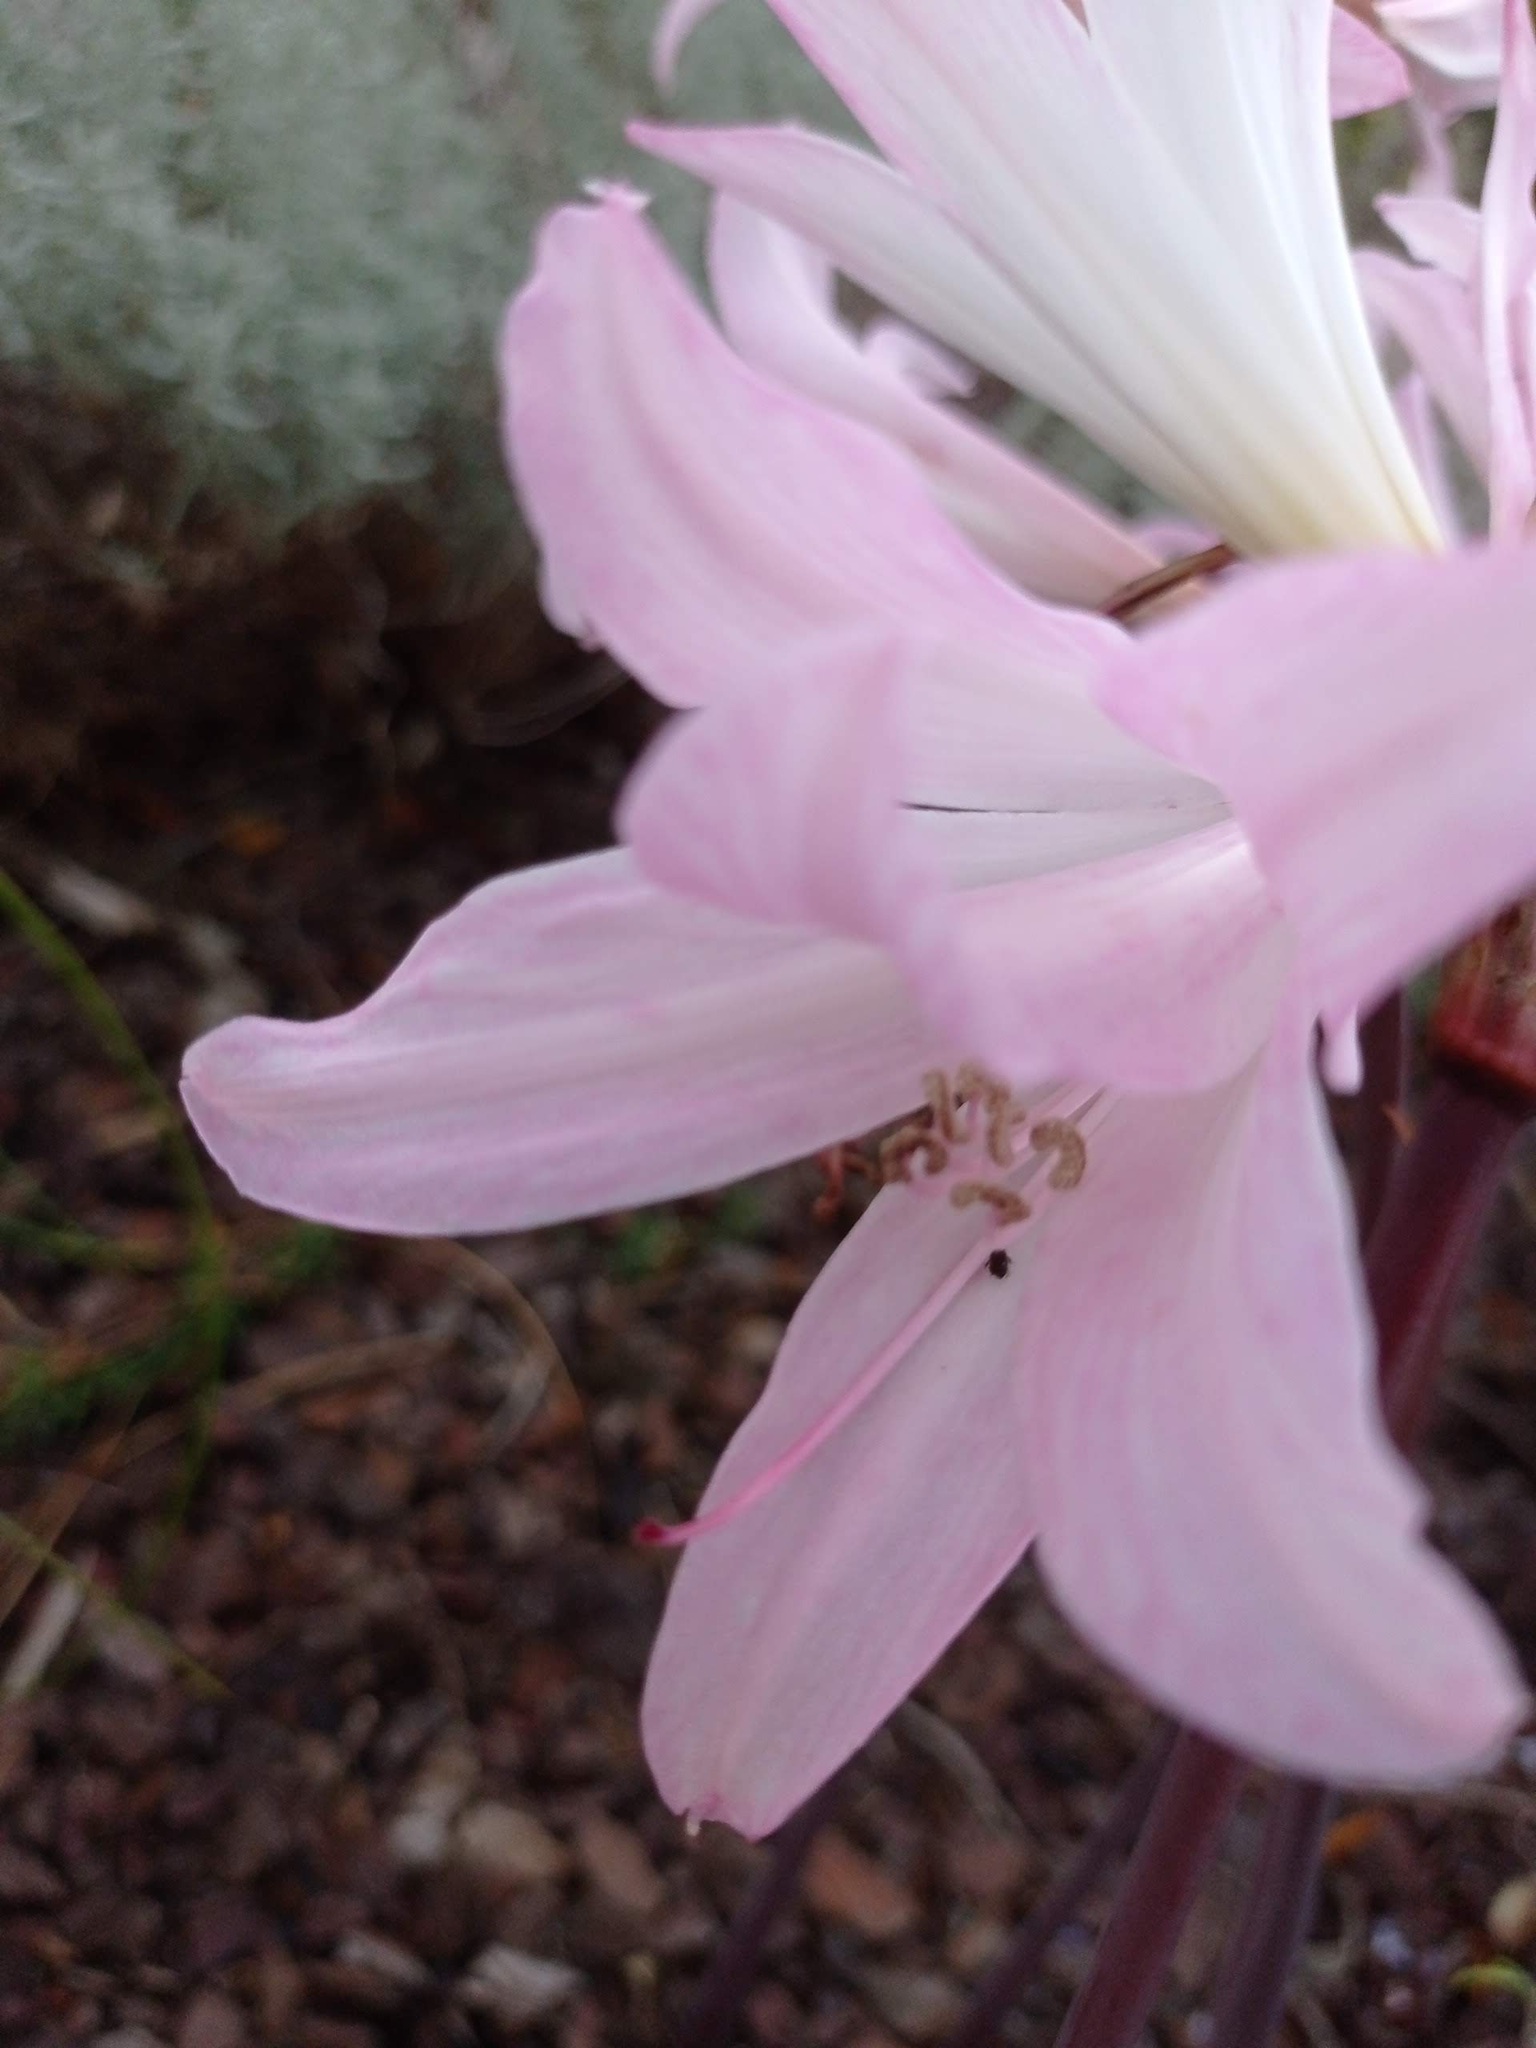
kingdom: Plantae
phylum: Tracheophyta
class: Liliopsida
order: Asparagales
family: Amaryllidaceae
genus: Amaryllis
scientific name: Amaryllis belladonna
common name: Jersey lily
